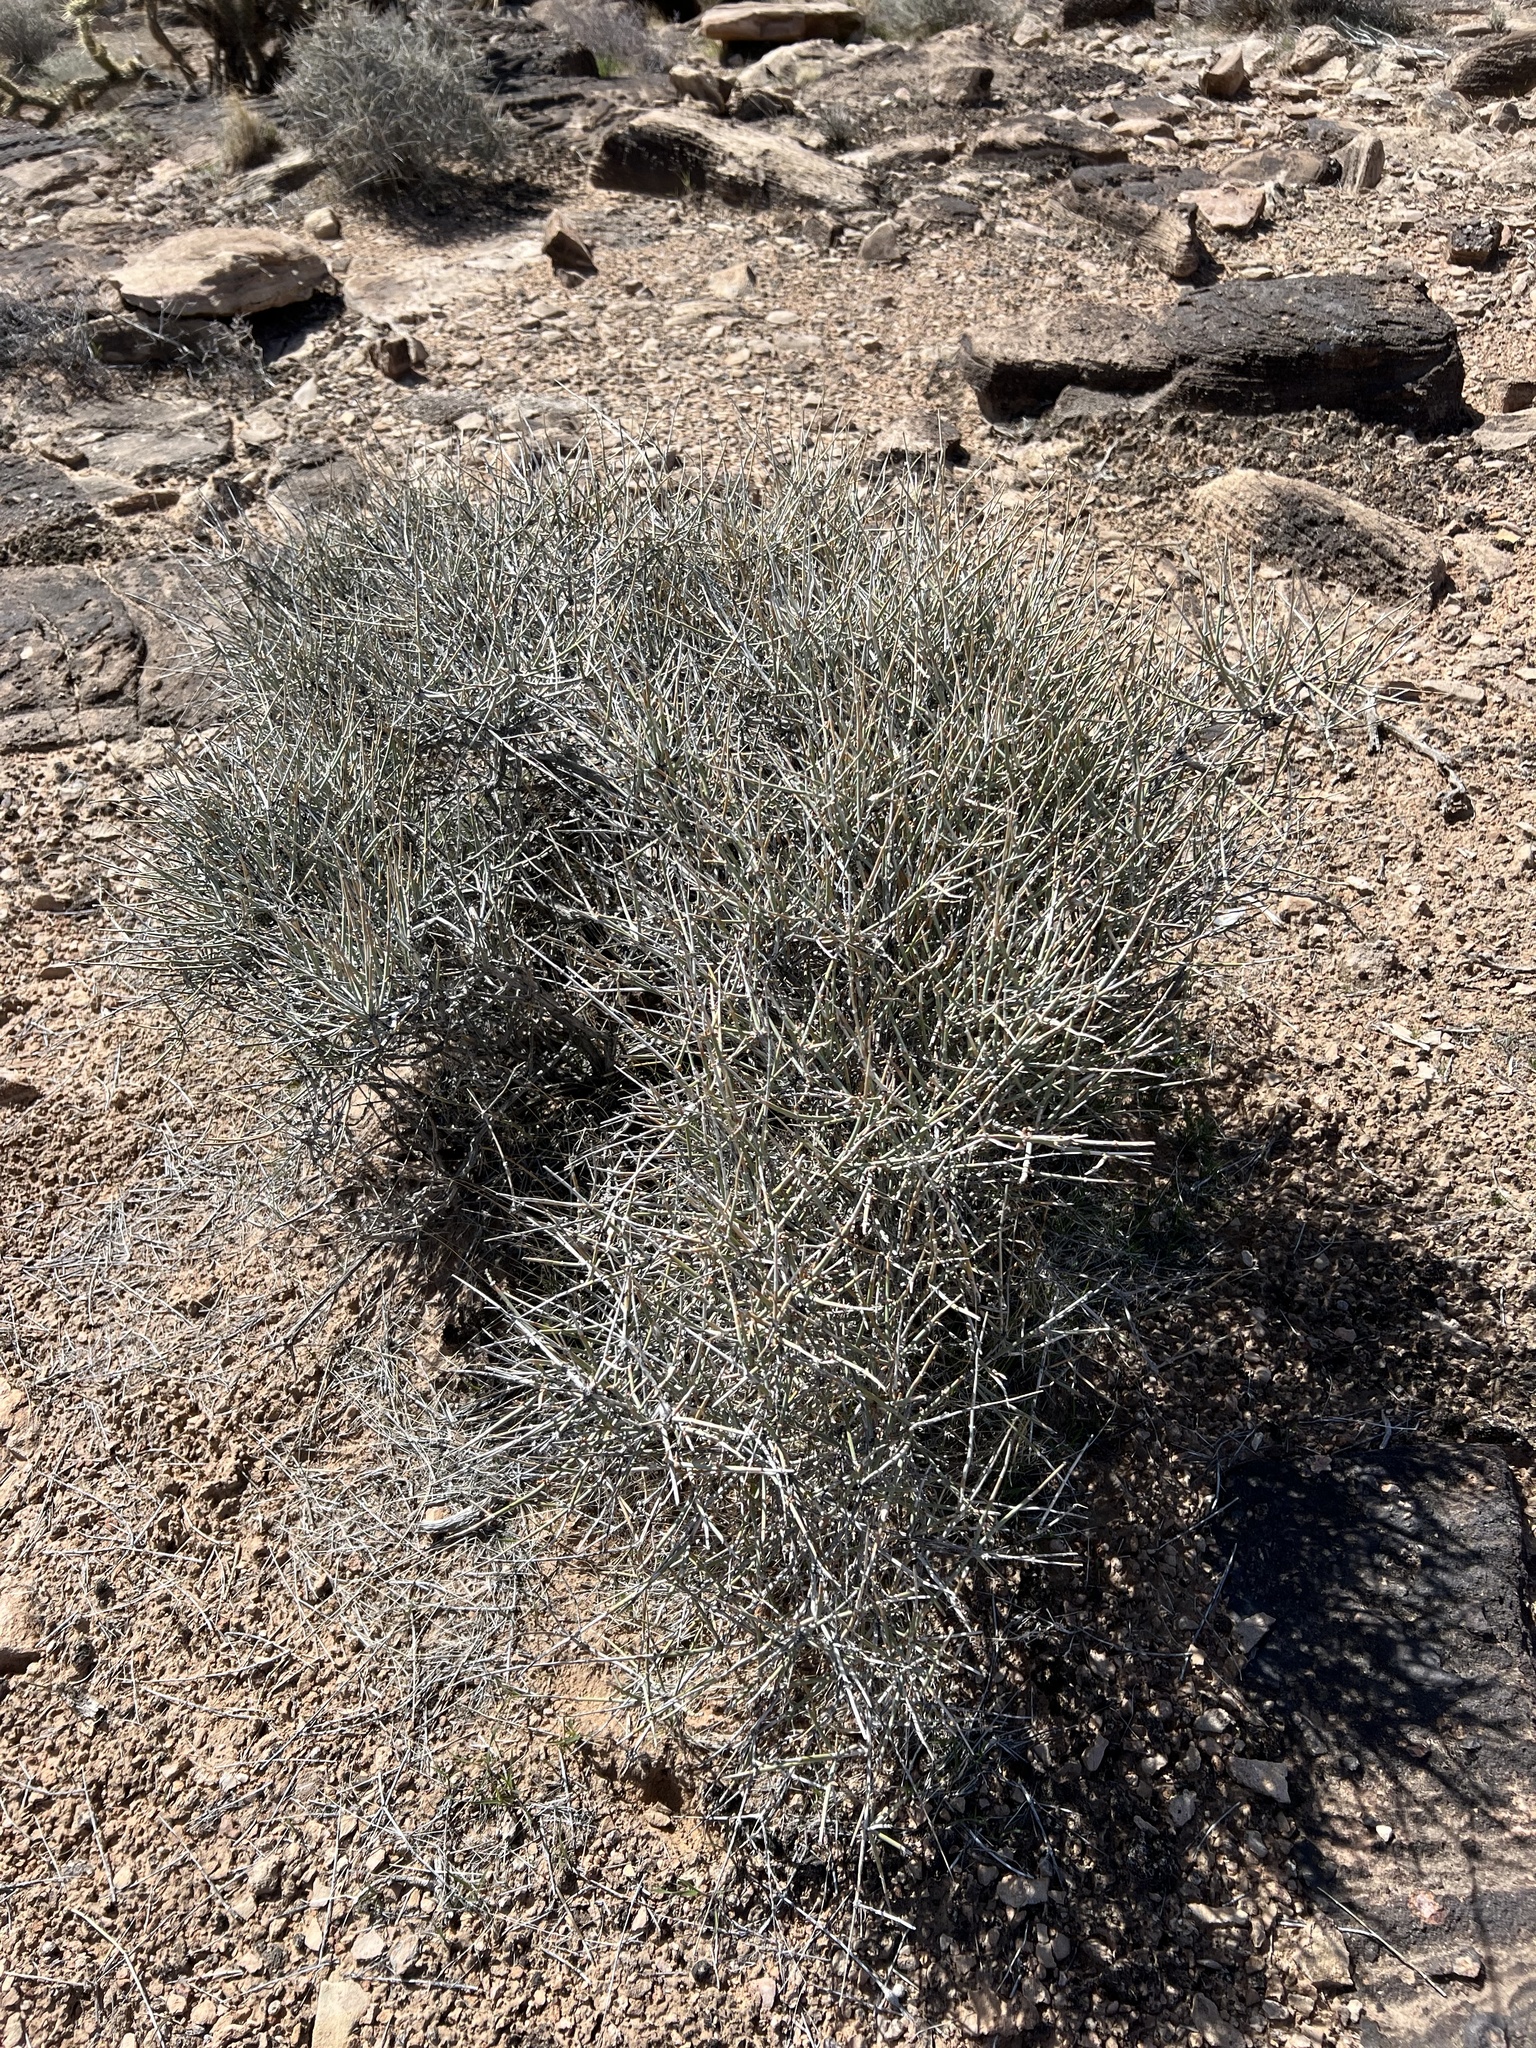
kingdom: Plantae
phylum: Tracheophyta
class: Gnetopsida
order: Ephedrales
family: Ephedraceae
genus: Ephedra
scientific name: Ephedra nevadensis
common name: Gray ephedra
